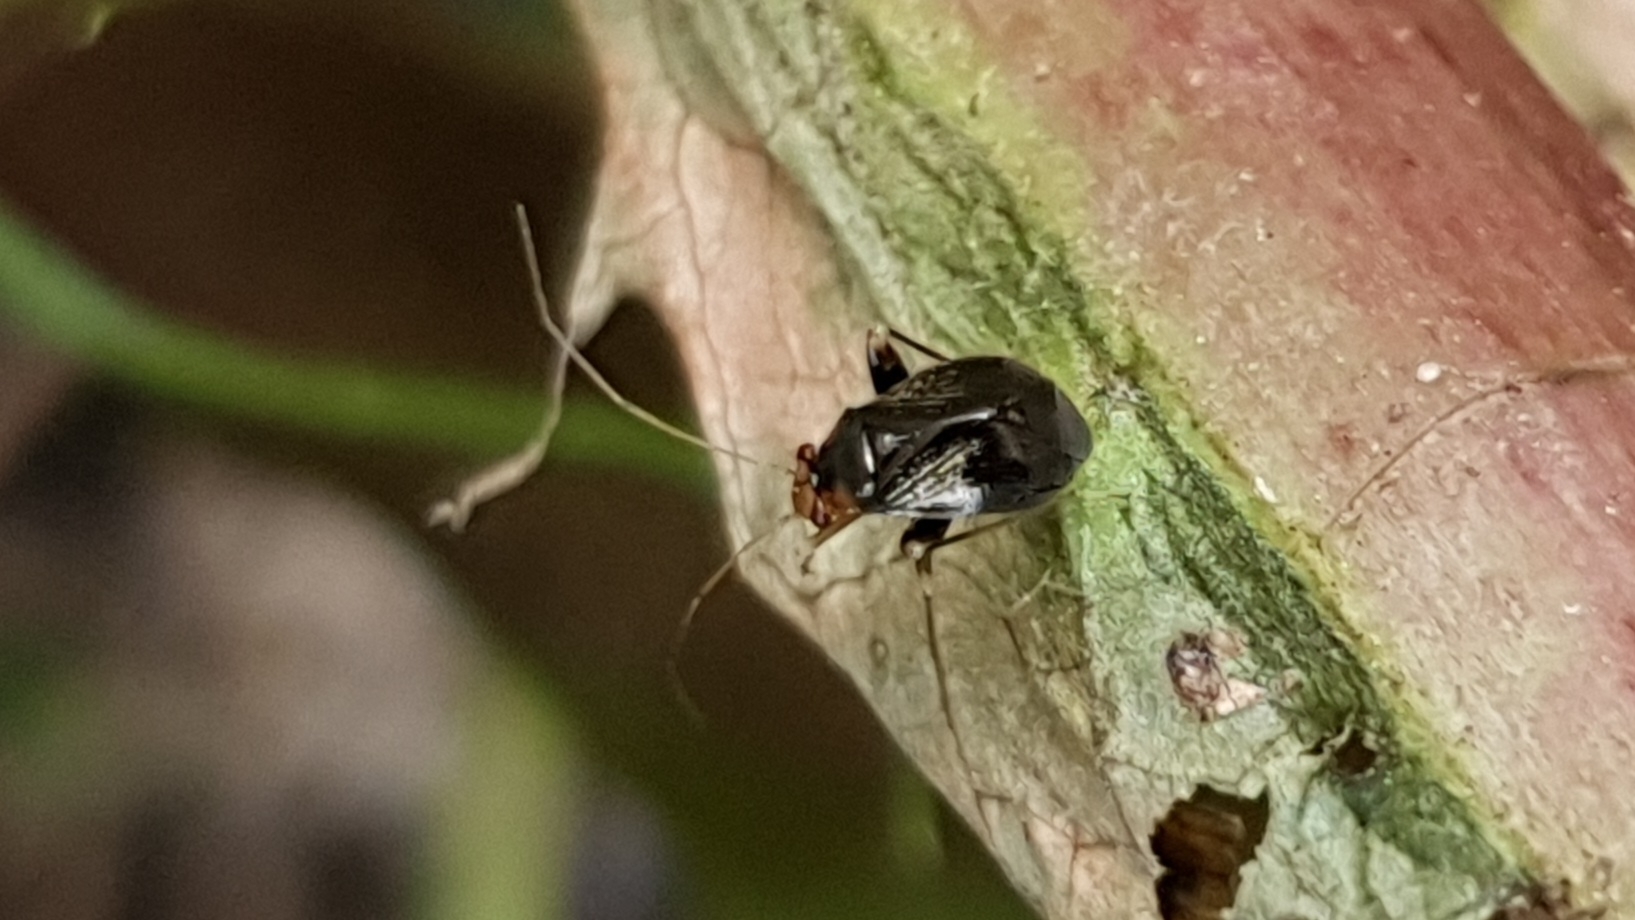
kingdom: Animalia
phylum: Arthropoda
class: Insecta
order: Hemiptera
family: Miridae
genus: Halticus
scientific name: Halticus luteicollis
